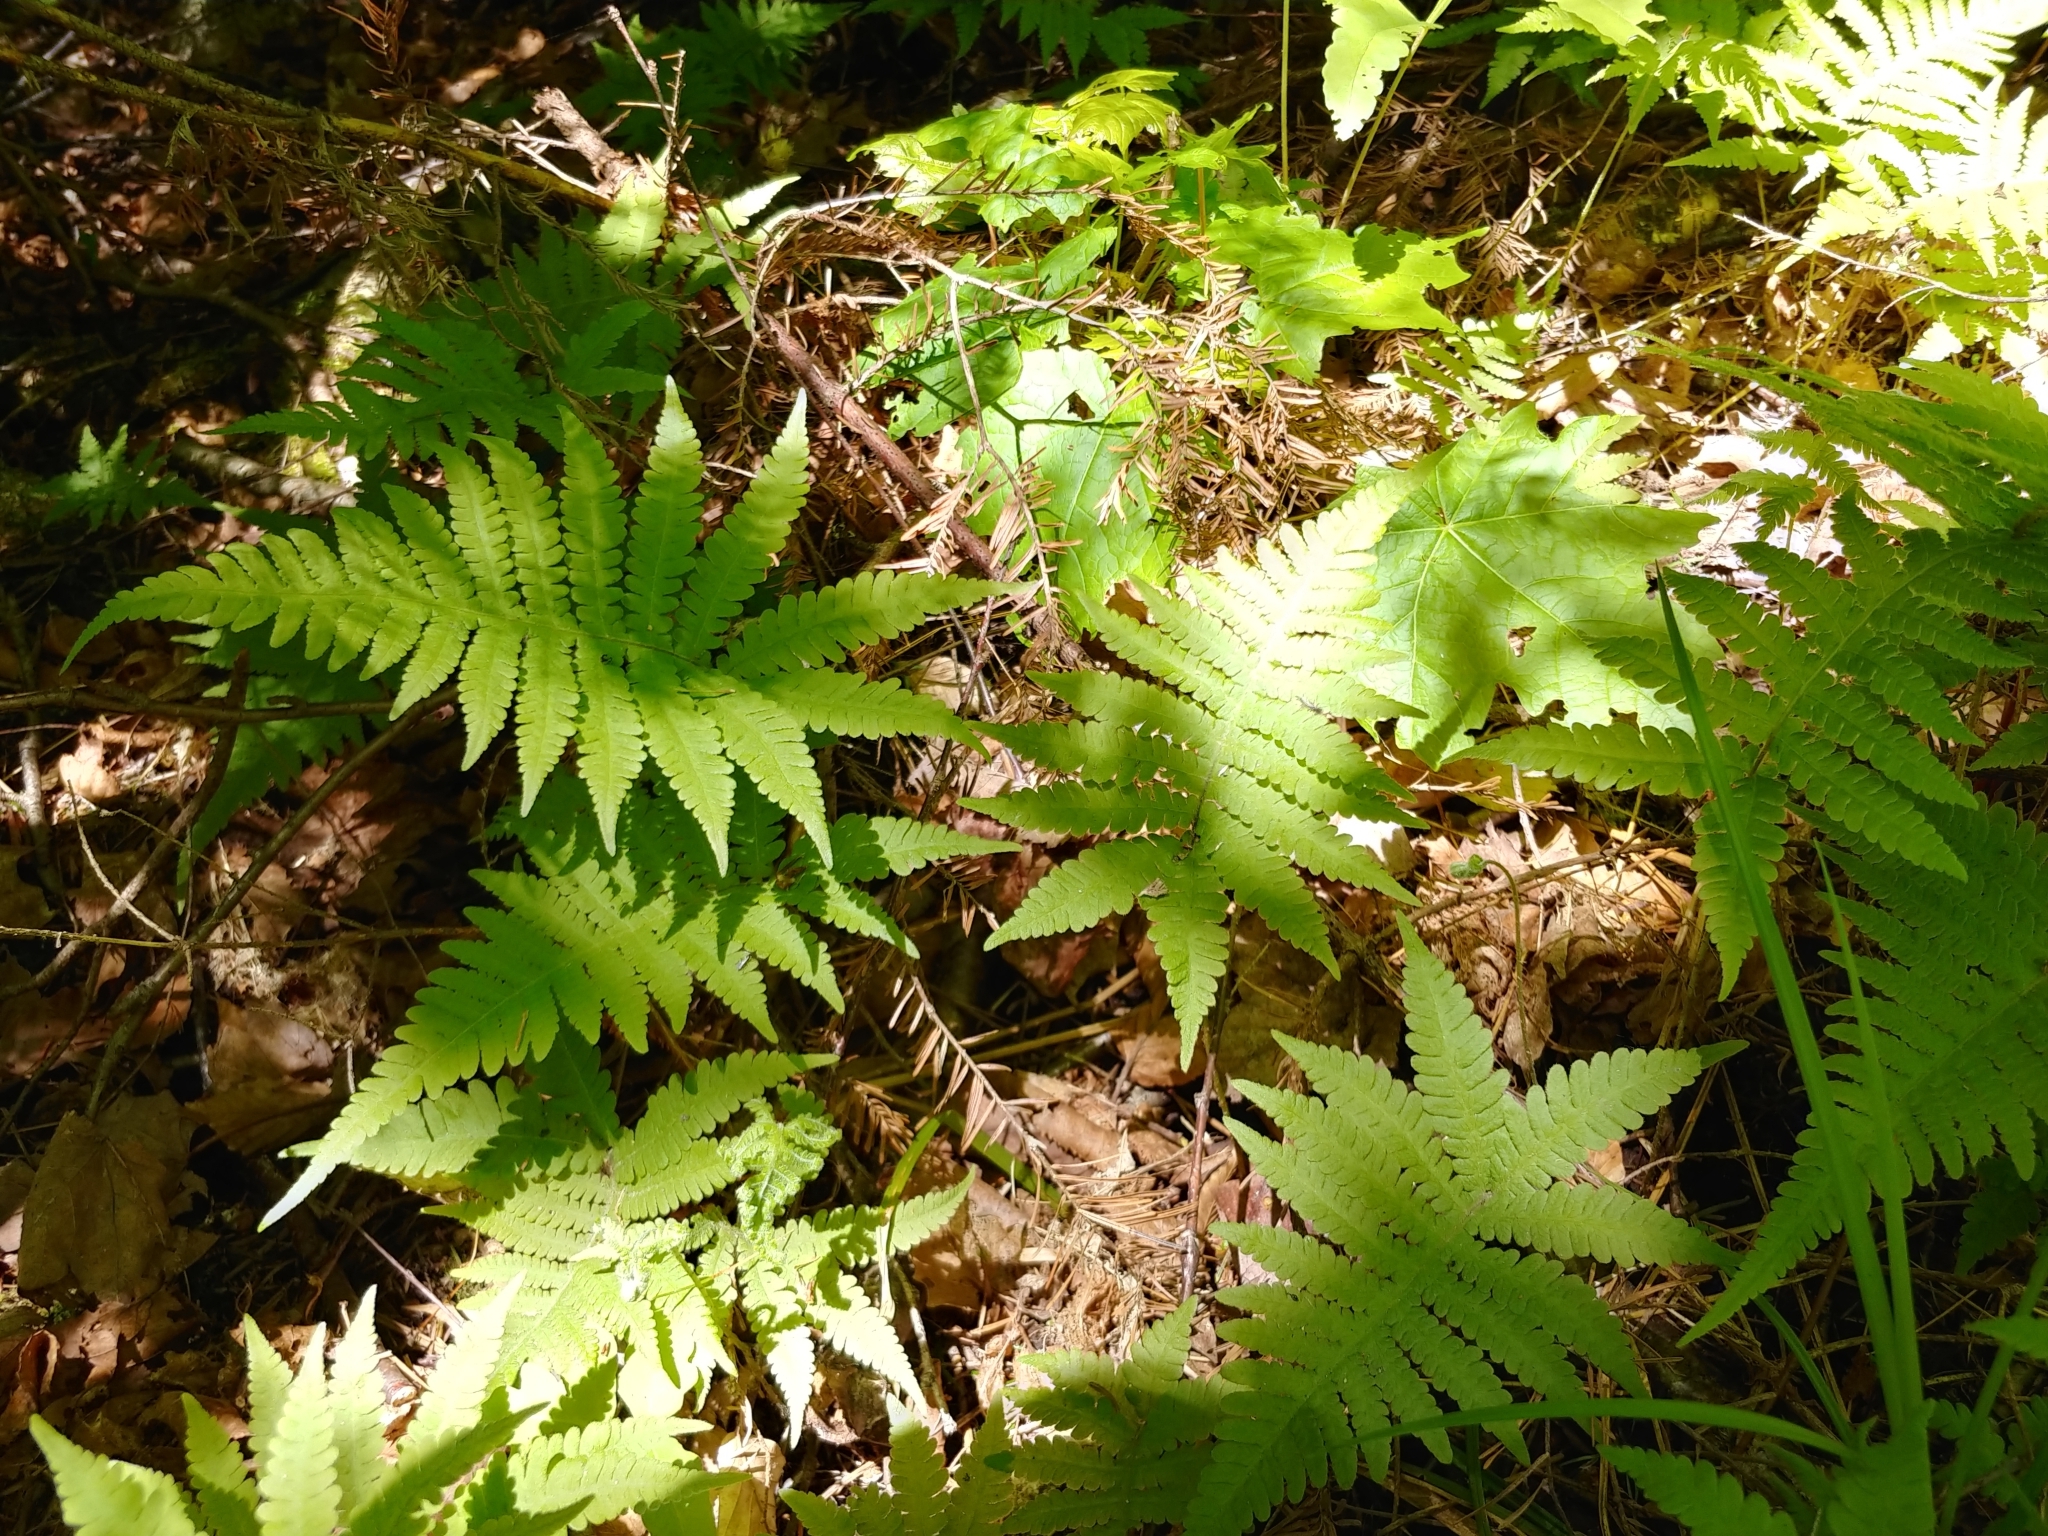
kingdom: Plantae
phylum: Tracheophyta
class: Polypodiopsida
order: Polypodiales
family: Thelypteridaceae
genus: Phegopteris
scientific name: Phegopteris connectilis
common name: Beech fern
